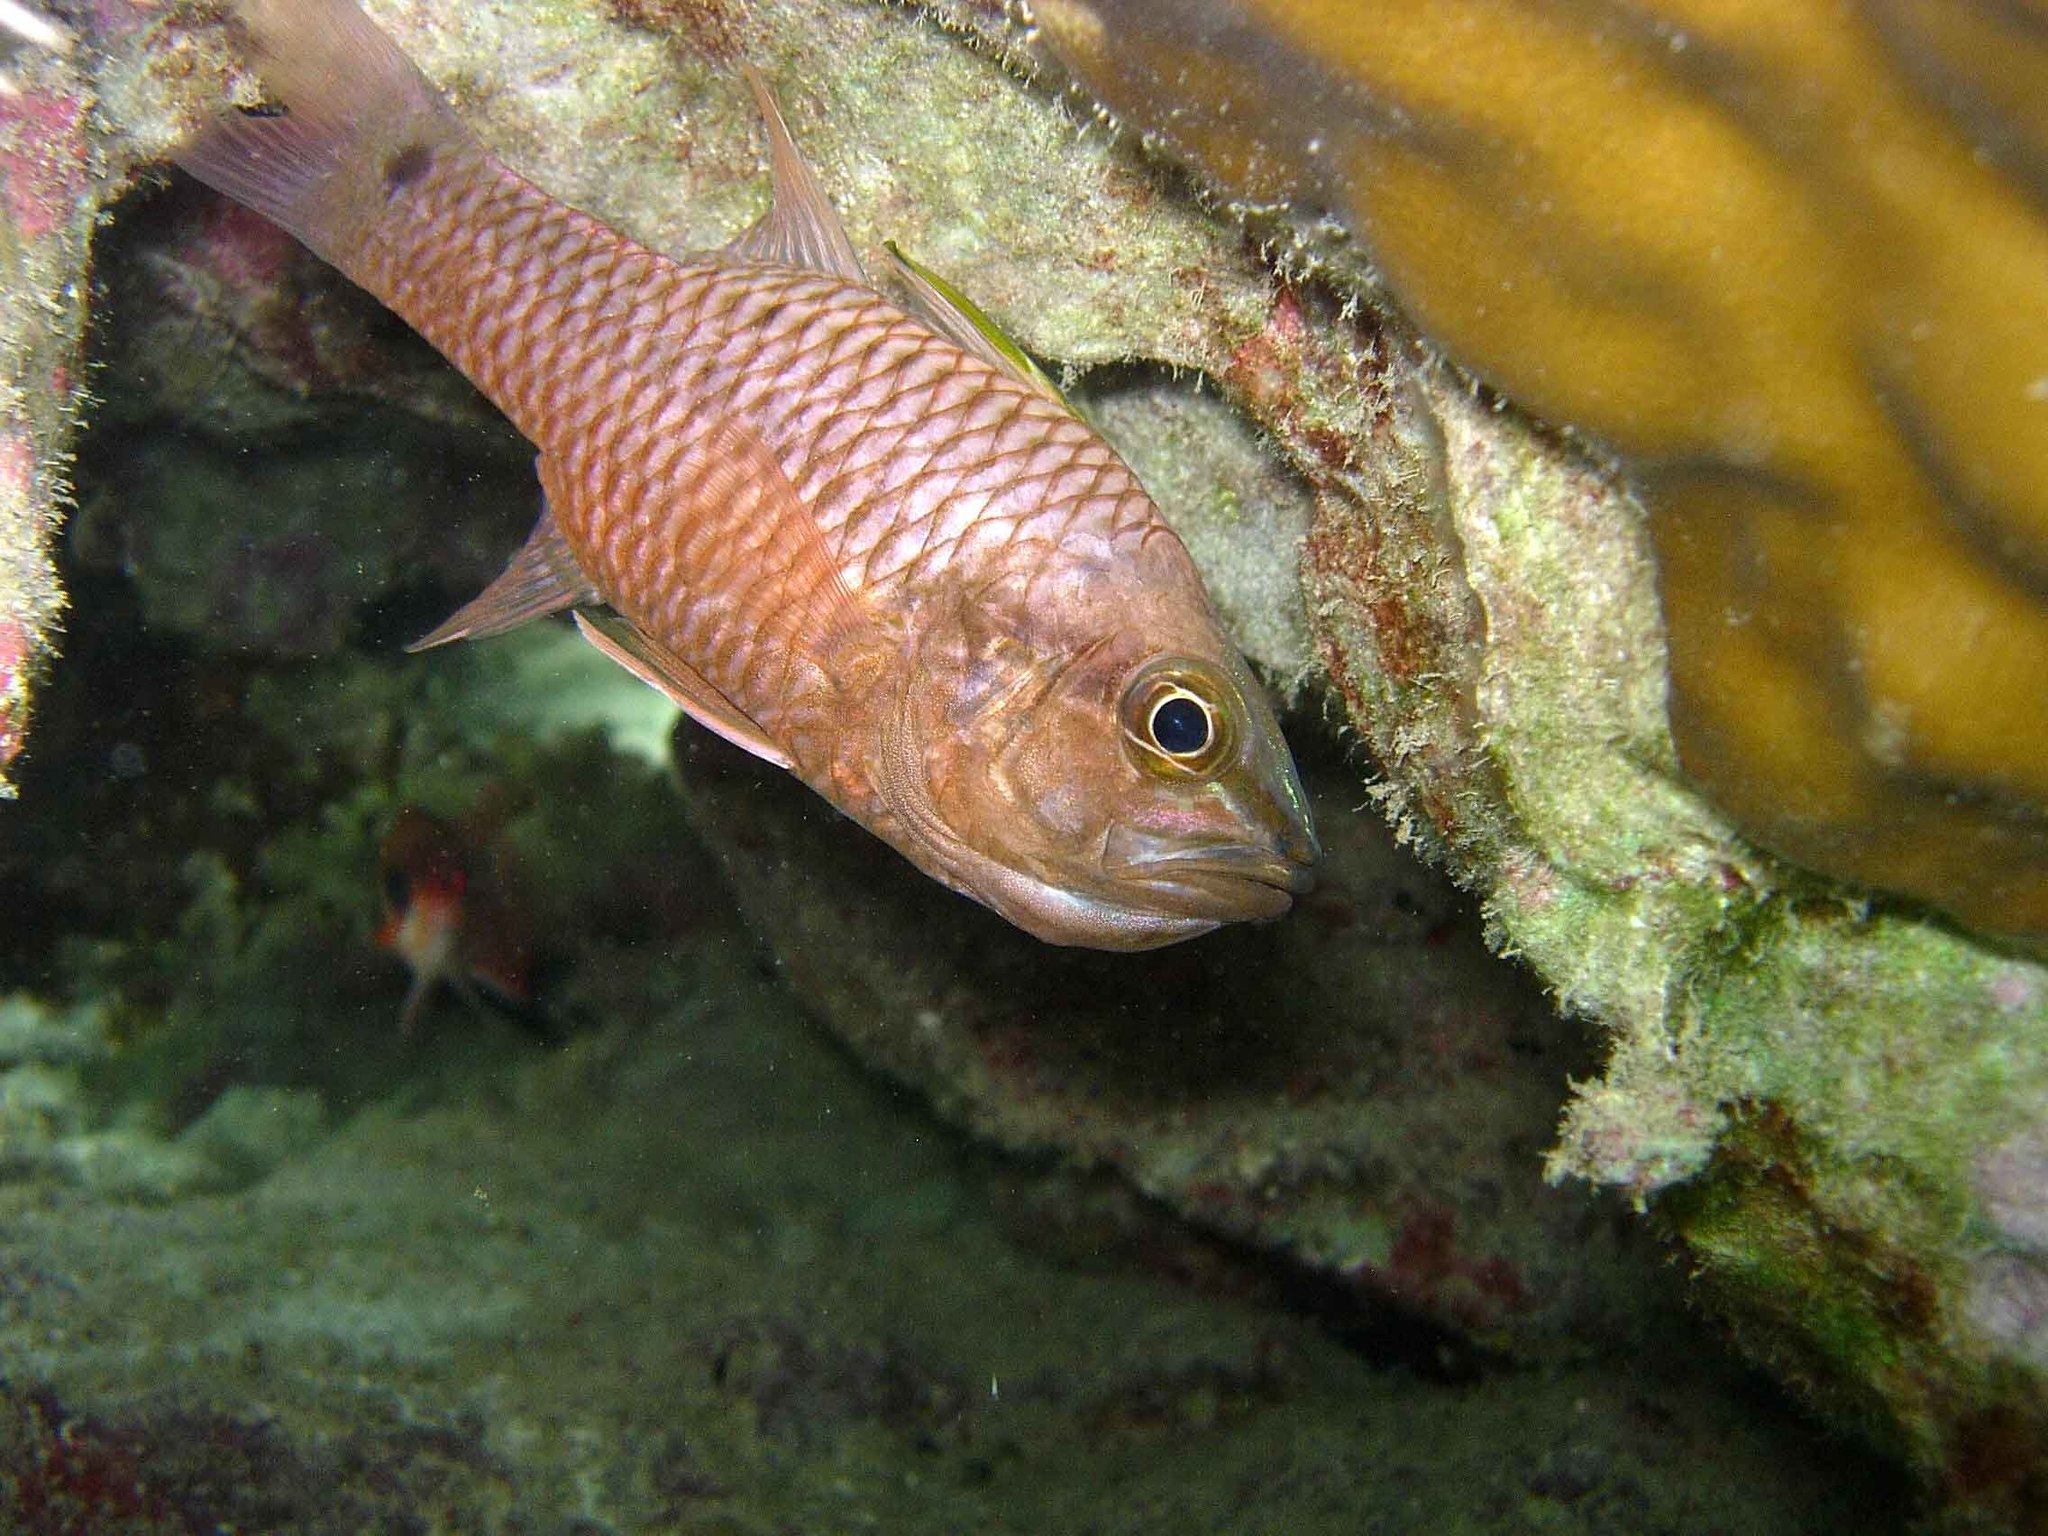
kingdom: Animalia
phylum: Chordata
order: Perciformes
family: Apogonidae
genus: Pristiapogon
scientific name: Pristiapogon kallopterus
